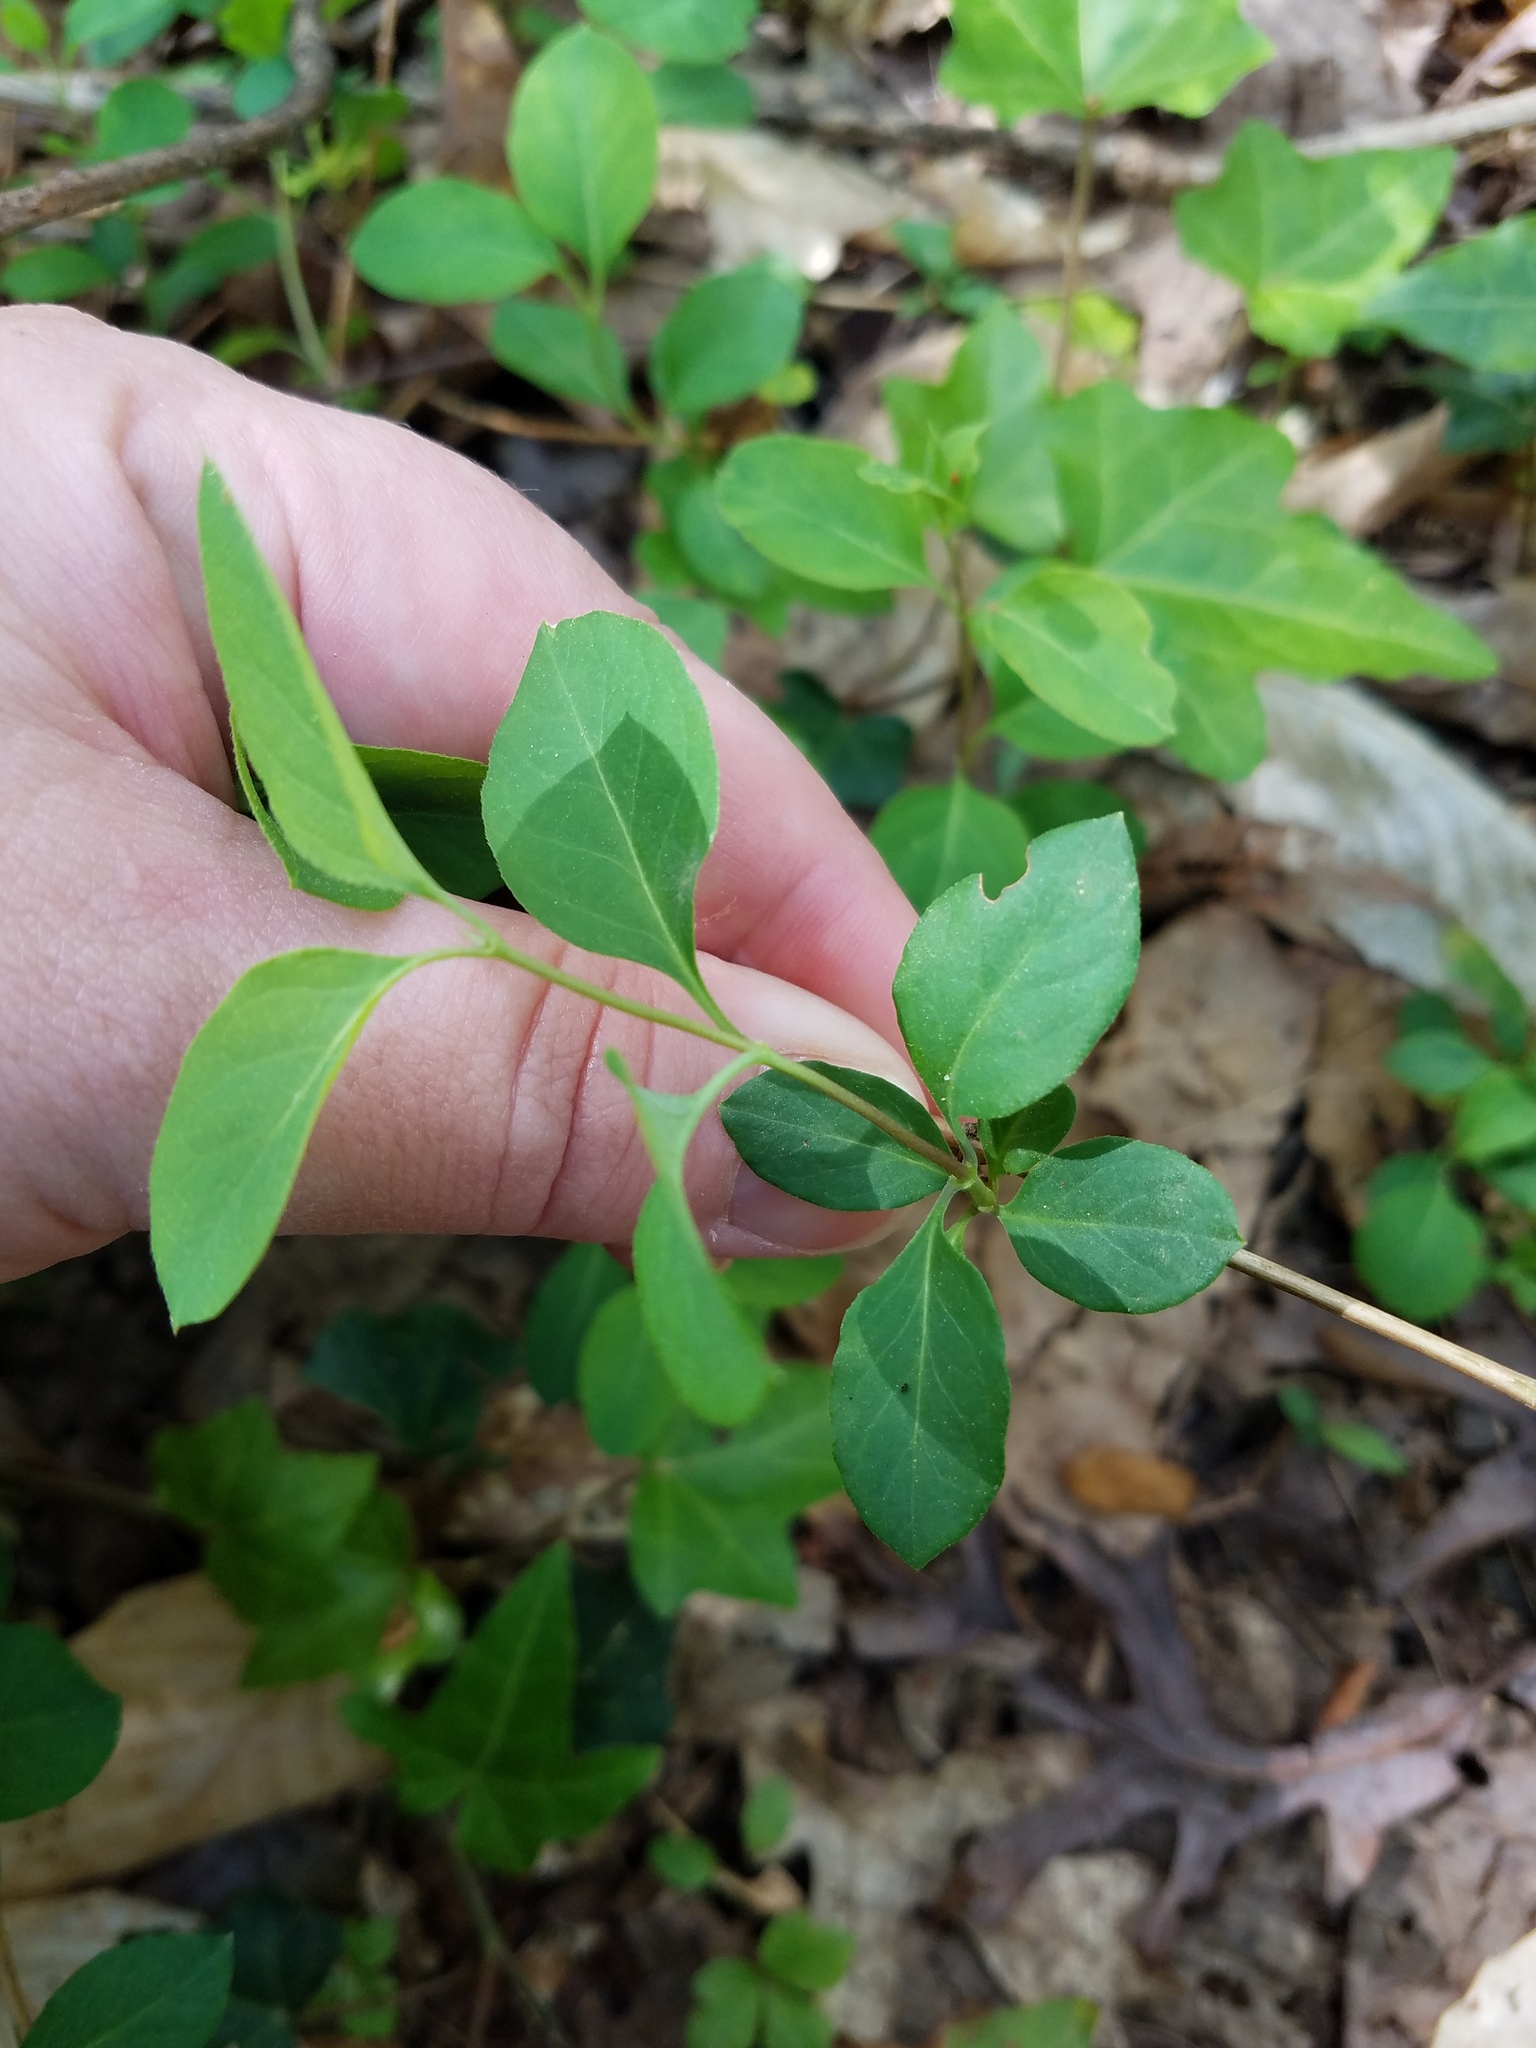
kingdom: Plantae
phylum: Tracheophyta
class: Magnoliopsida
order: Dipsacales
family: Caprifoliaceae
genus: Lonicera
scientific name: Lonicera japonica
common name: Japanese honeysuckle
